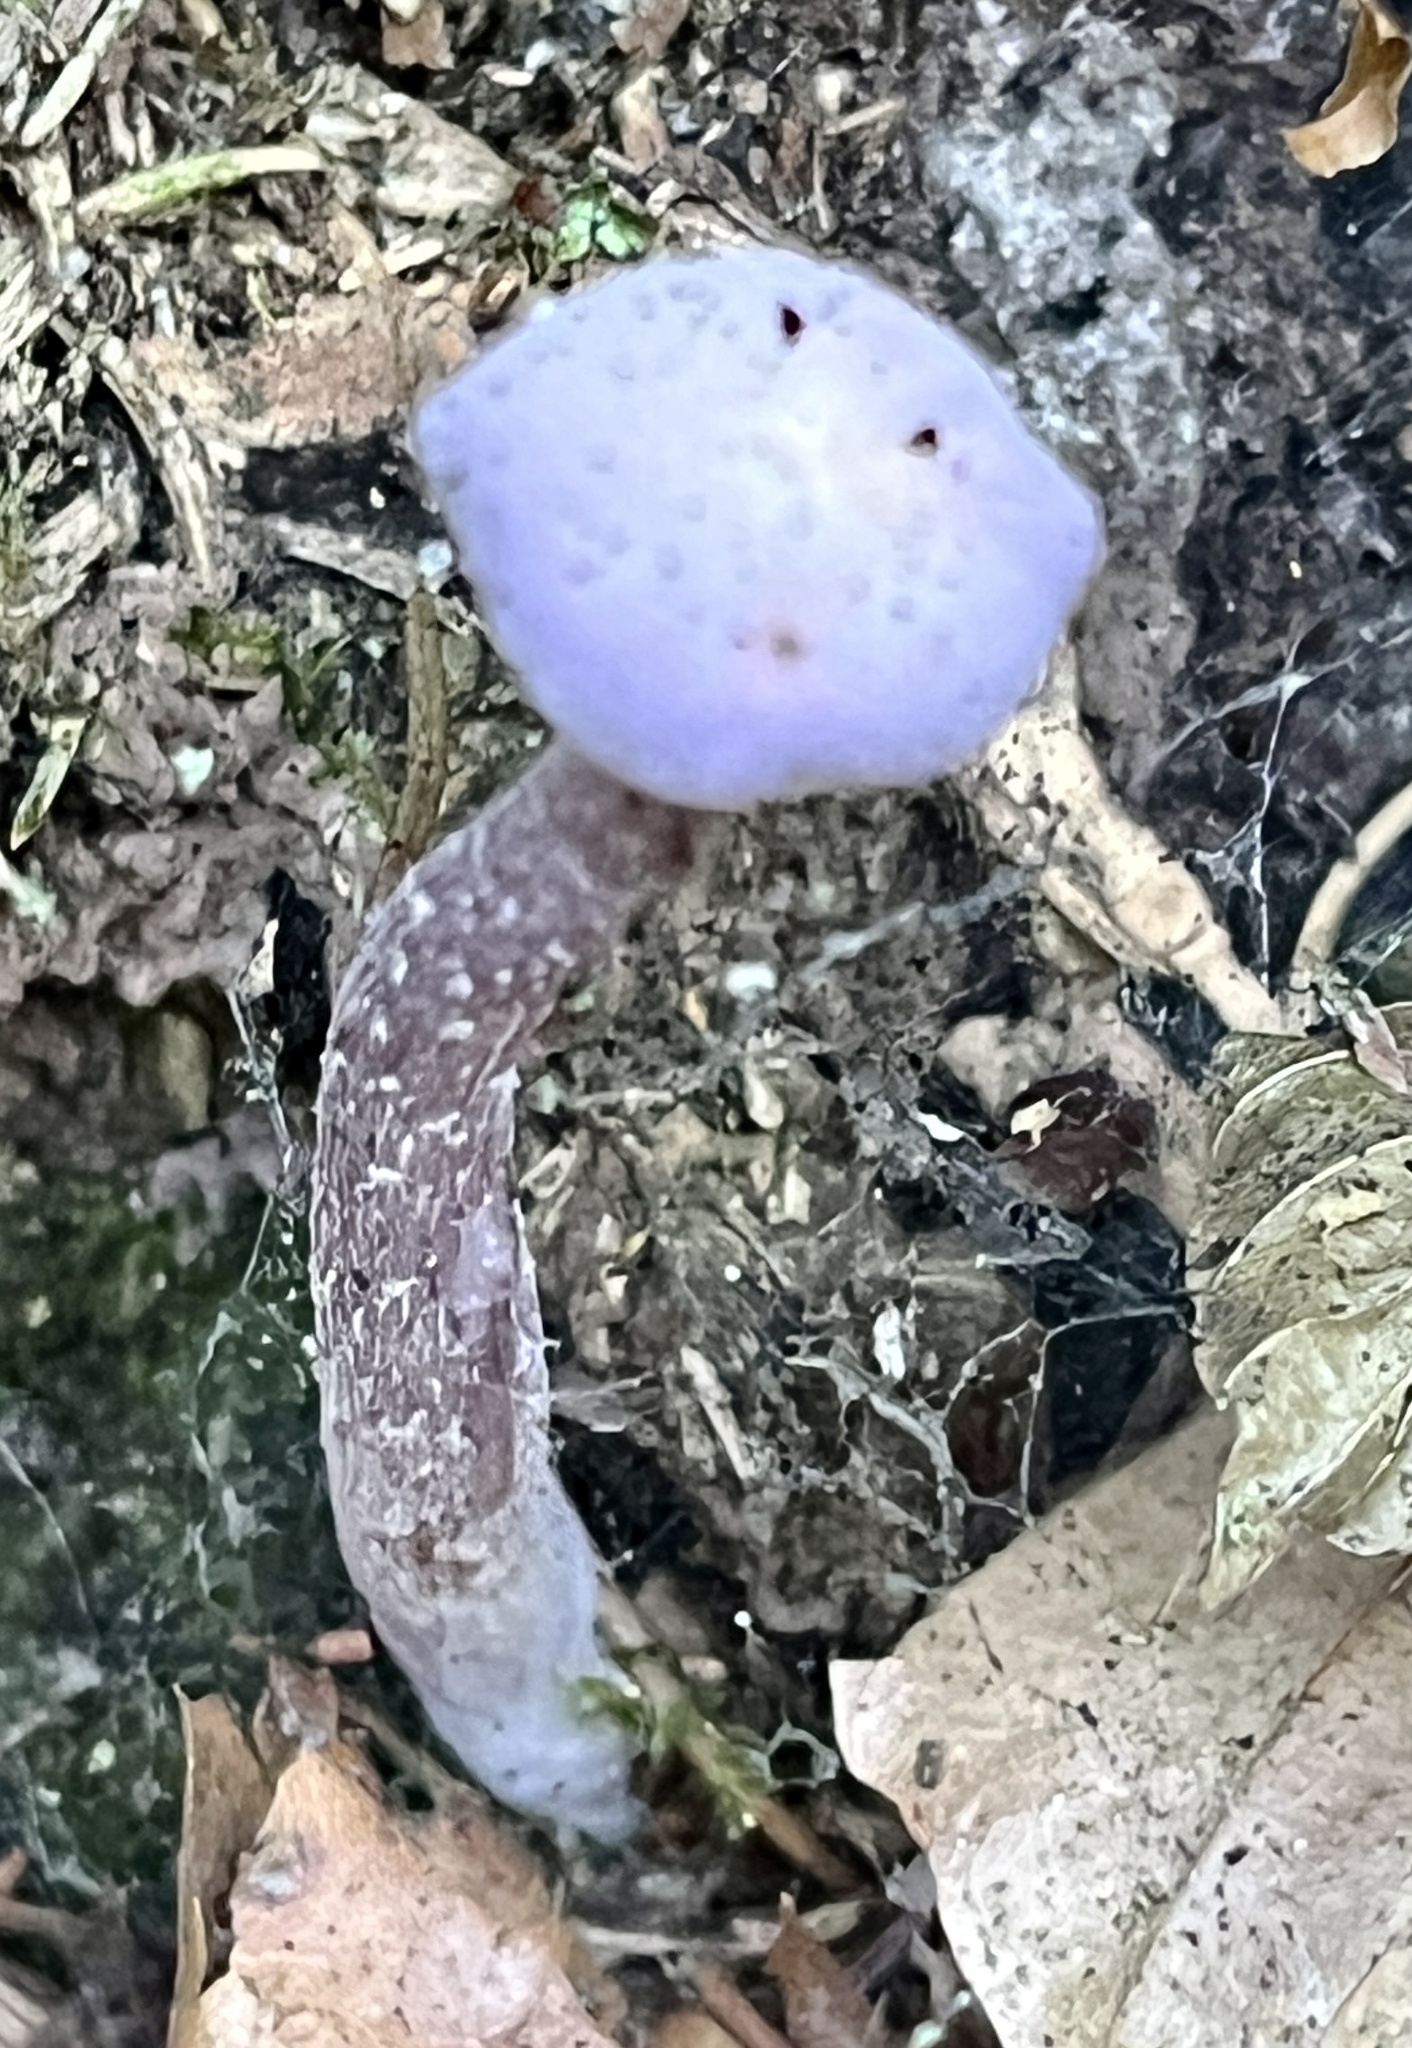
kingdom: Fungi
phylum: Basidiomycota
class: Agaricomycetes
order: Agaricales
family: Hydnangiaceae
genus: Laccaria
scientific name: Laccaria amethystina
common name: Amethyst deceiver
